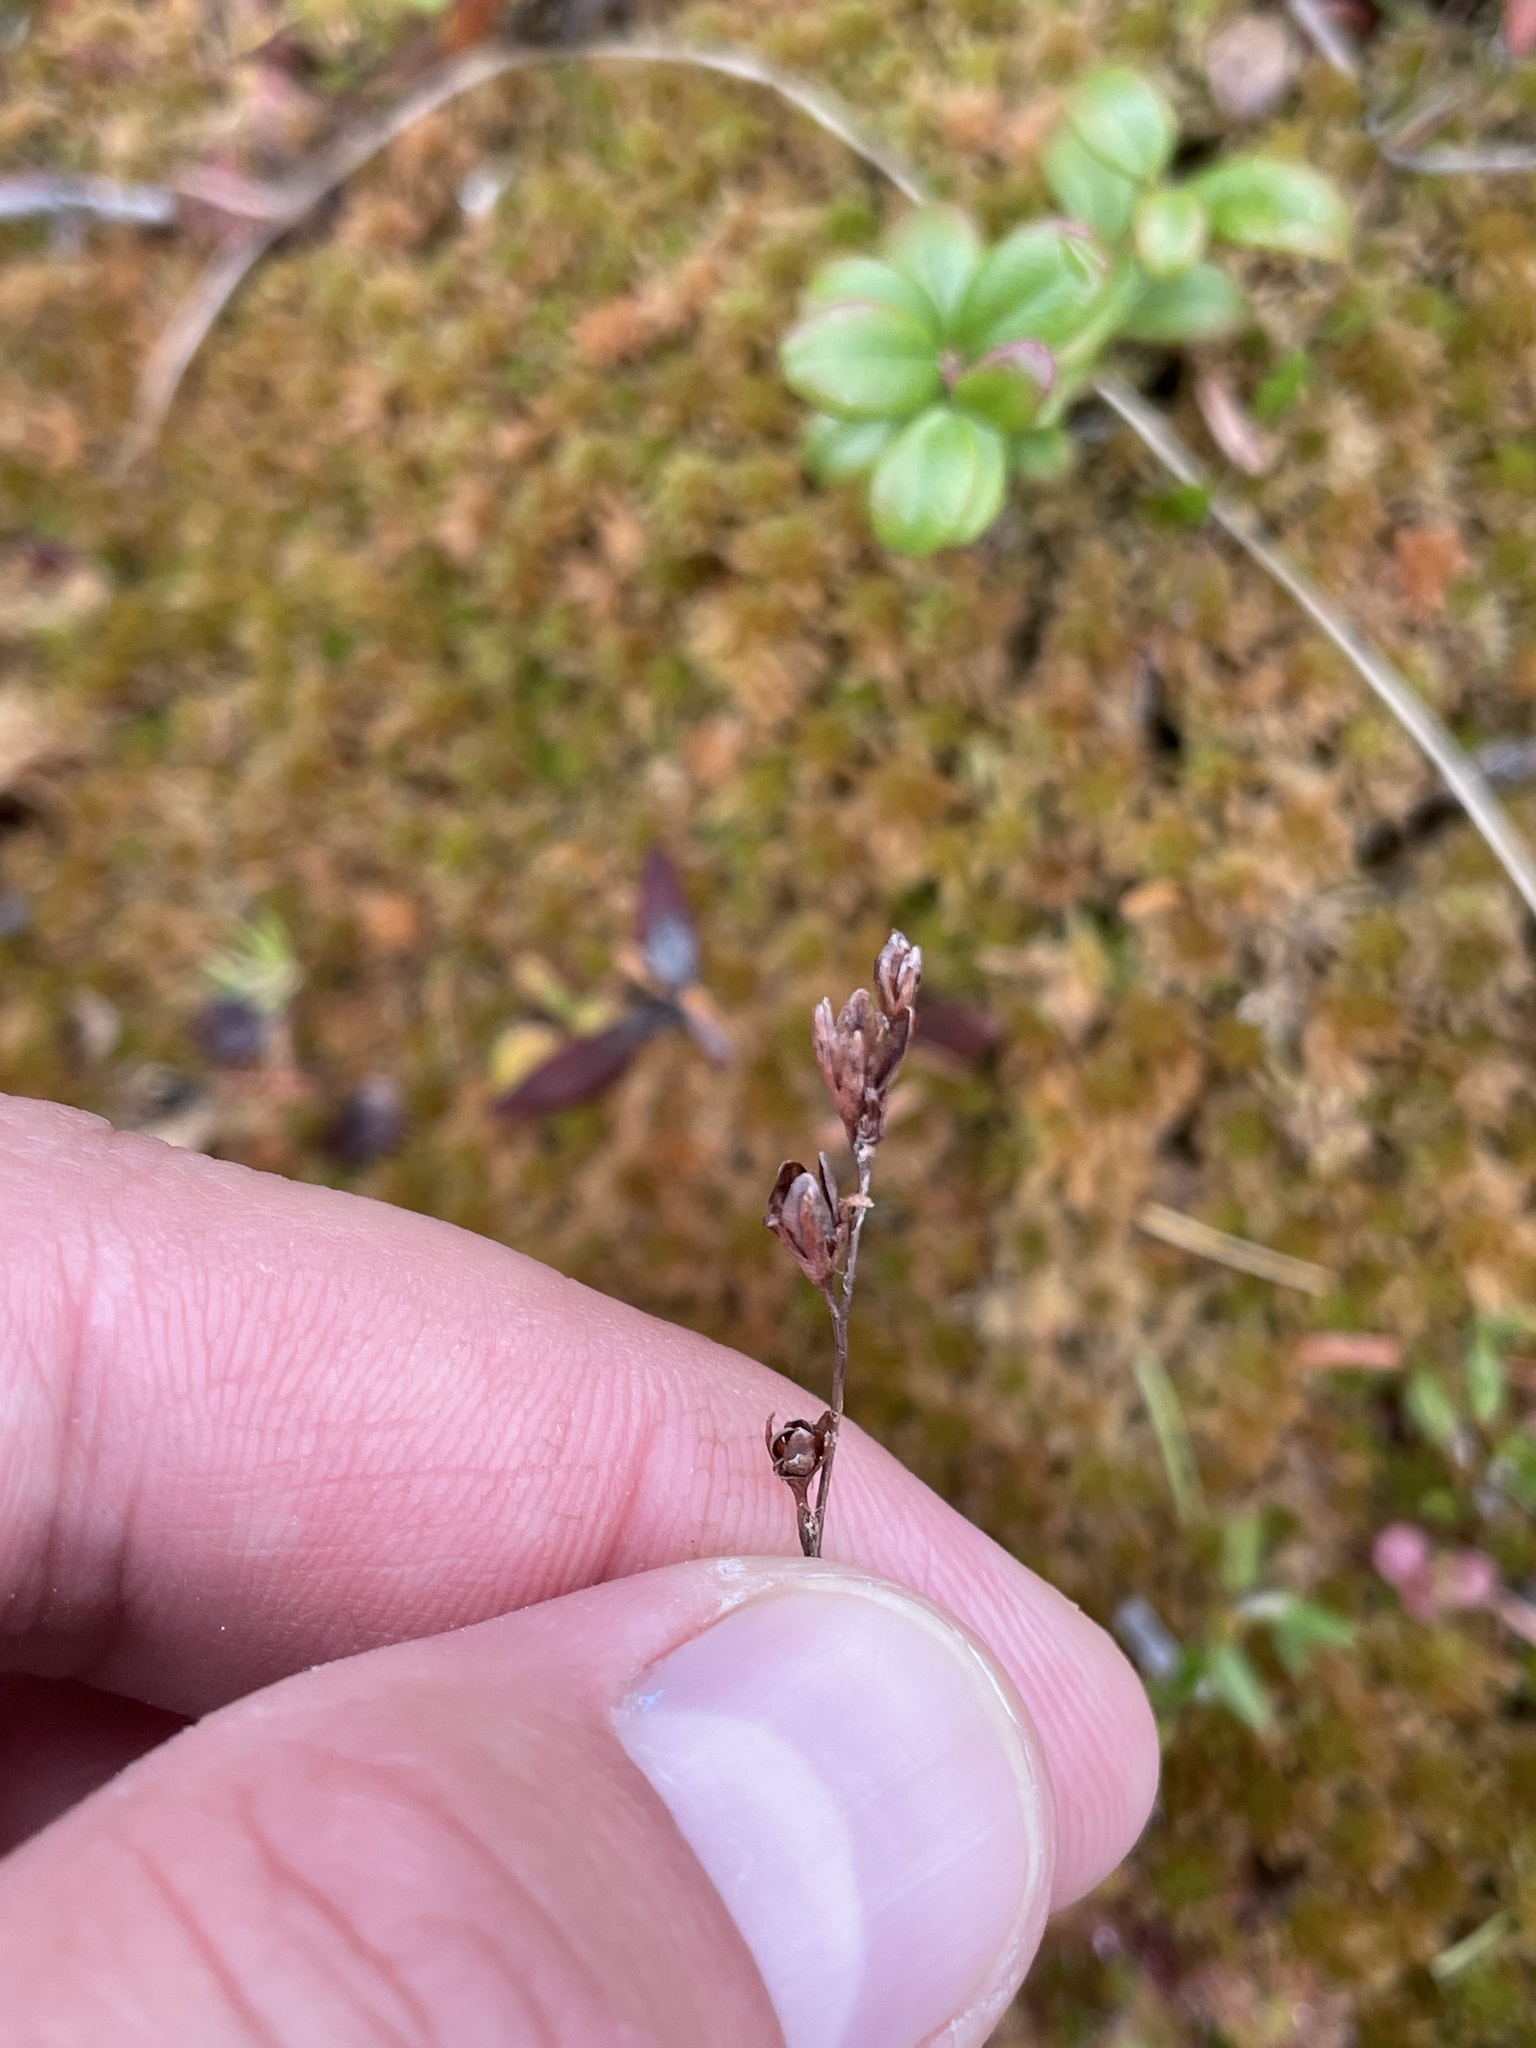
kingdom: Plantae
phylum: Tracheophyta
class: Magnoliopsida
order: Caryophyllales
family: Droseraceae
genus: Drosera
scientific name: Drosera rotundifolia
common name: Round-leaved sundew
